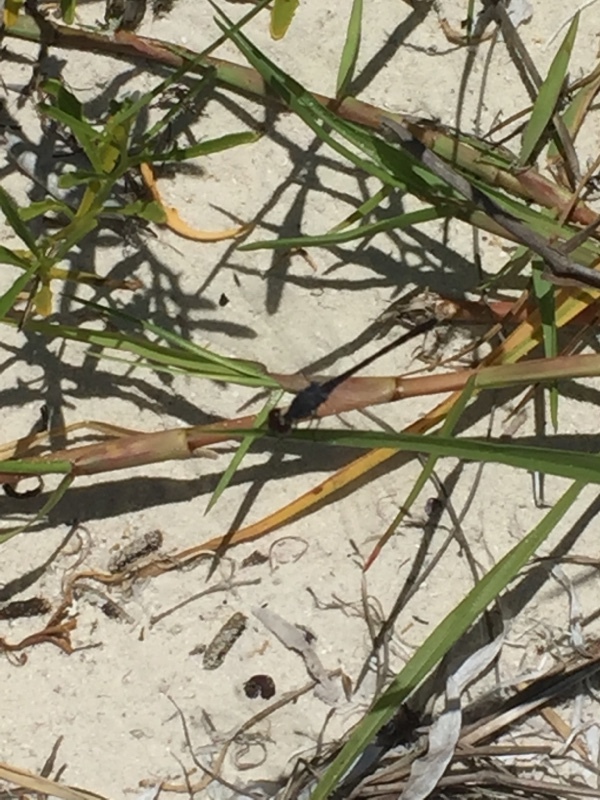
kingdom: Animalia
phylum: Arthropoda
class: Insecta
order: Odonata
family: Libellulidae
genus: Erythrodiplax
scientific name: Erythrodiplax berenice
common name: Seaside dragonlet
